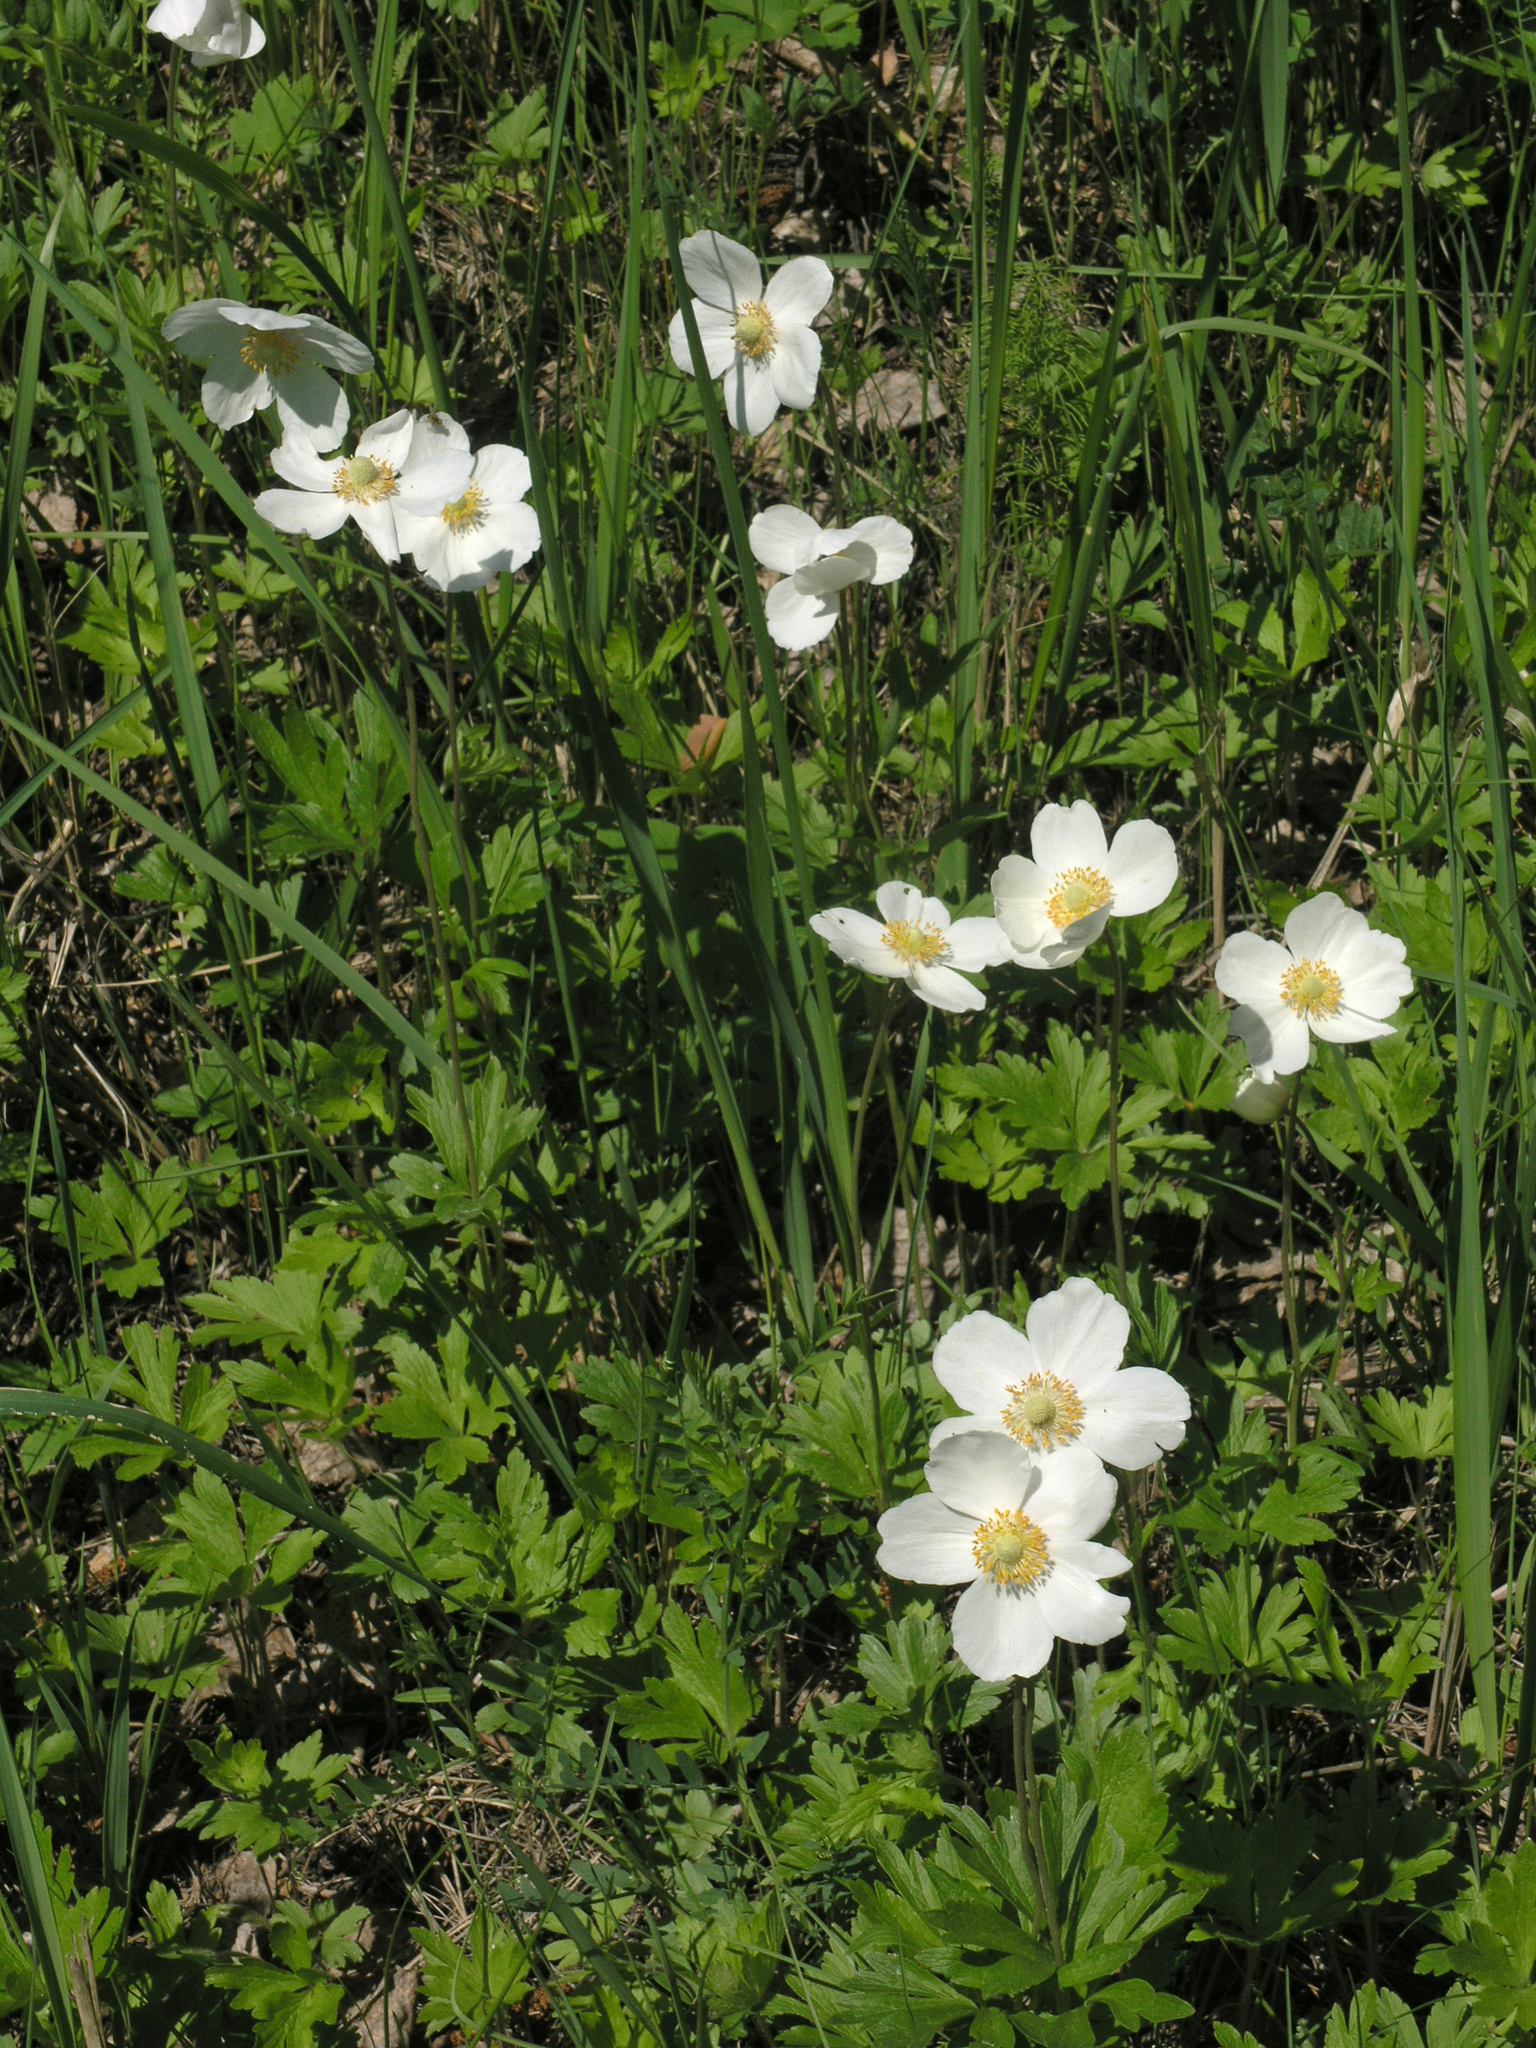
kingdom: Plantae
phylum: Tracheophyta
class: Magnoliopsida
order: Ranunculales
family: Ranunculaceae
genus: Anemone
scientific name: Anemone sylvestris
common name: Snowdrop anemone
